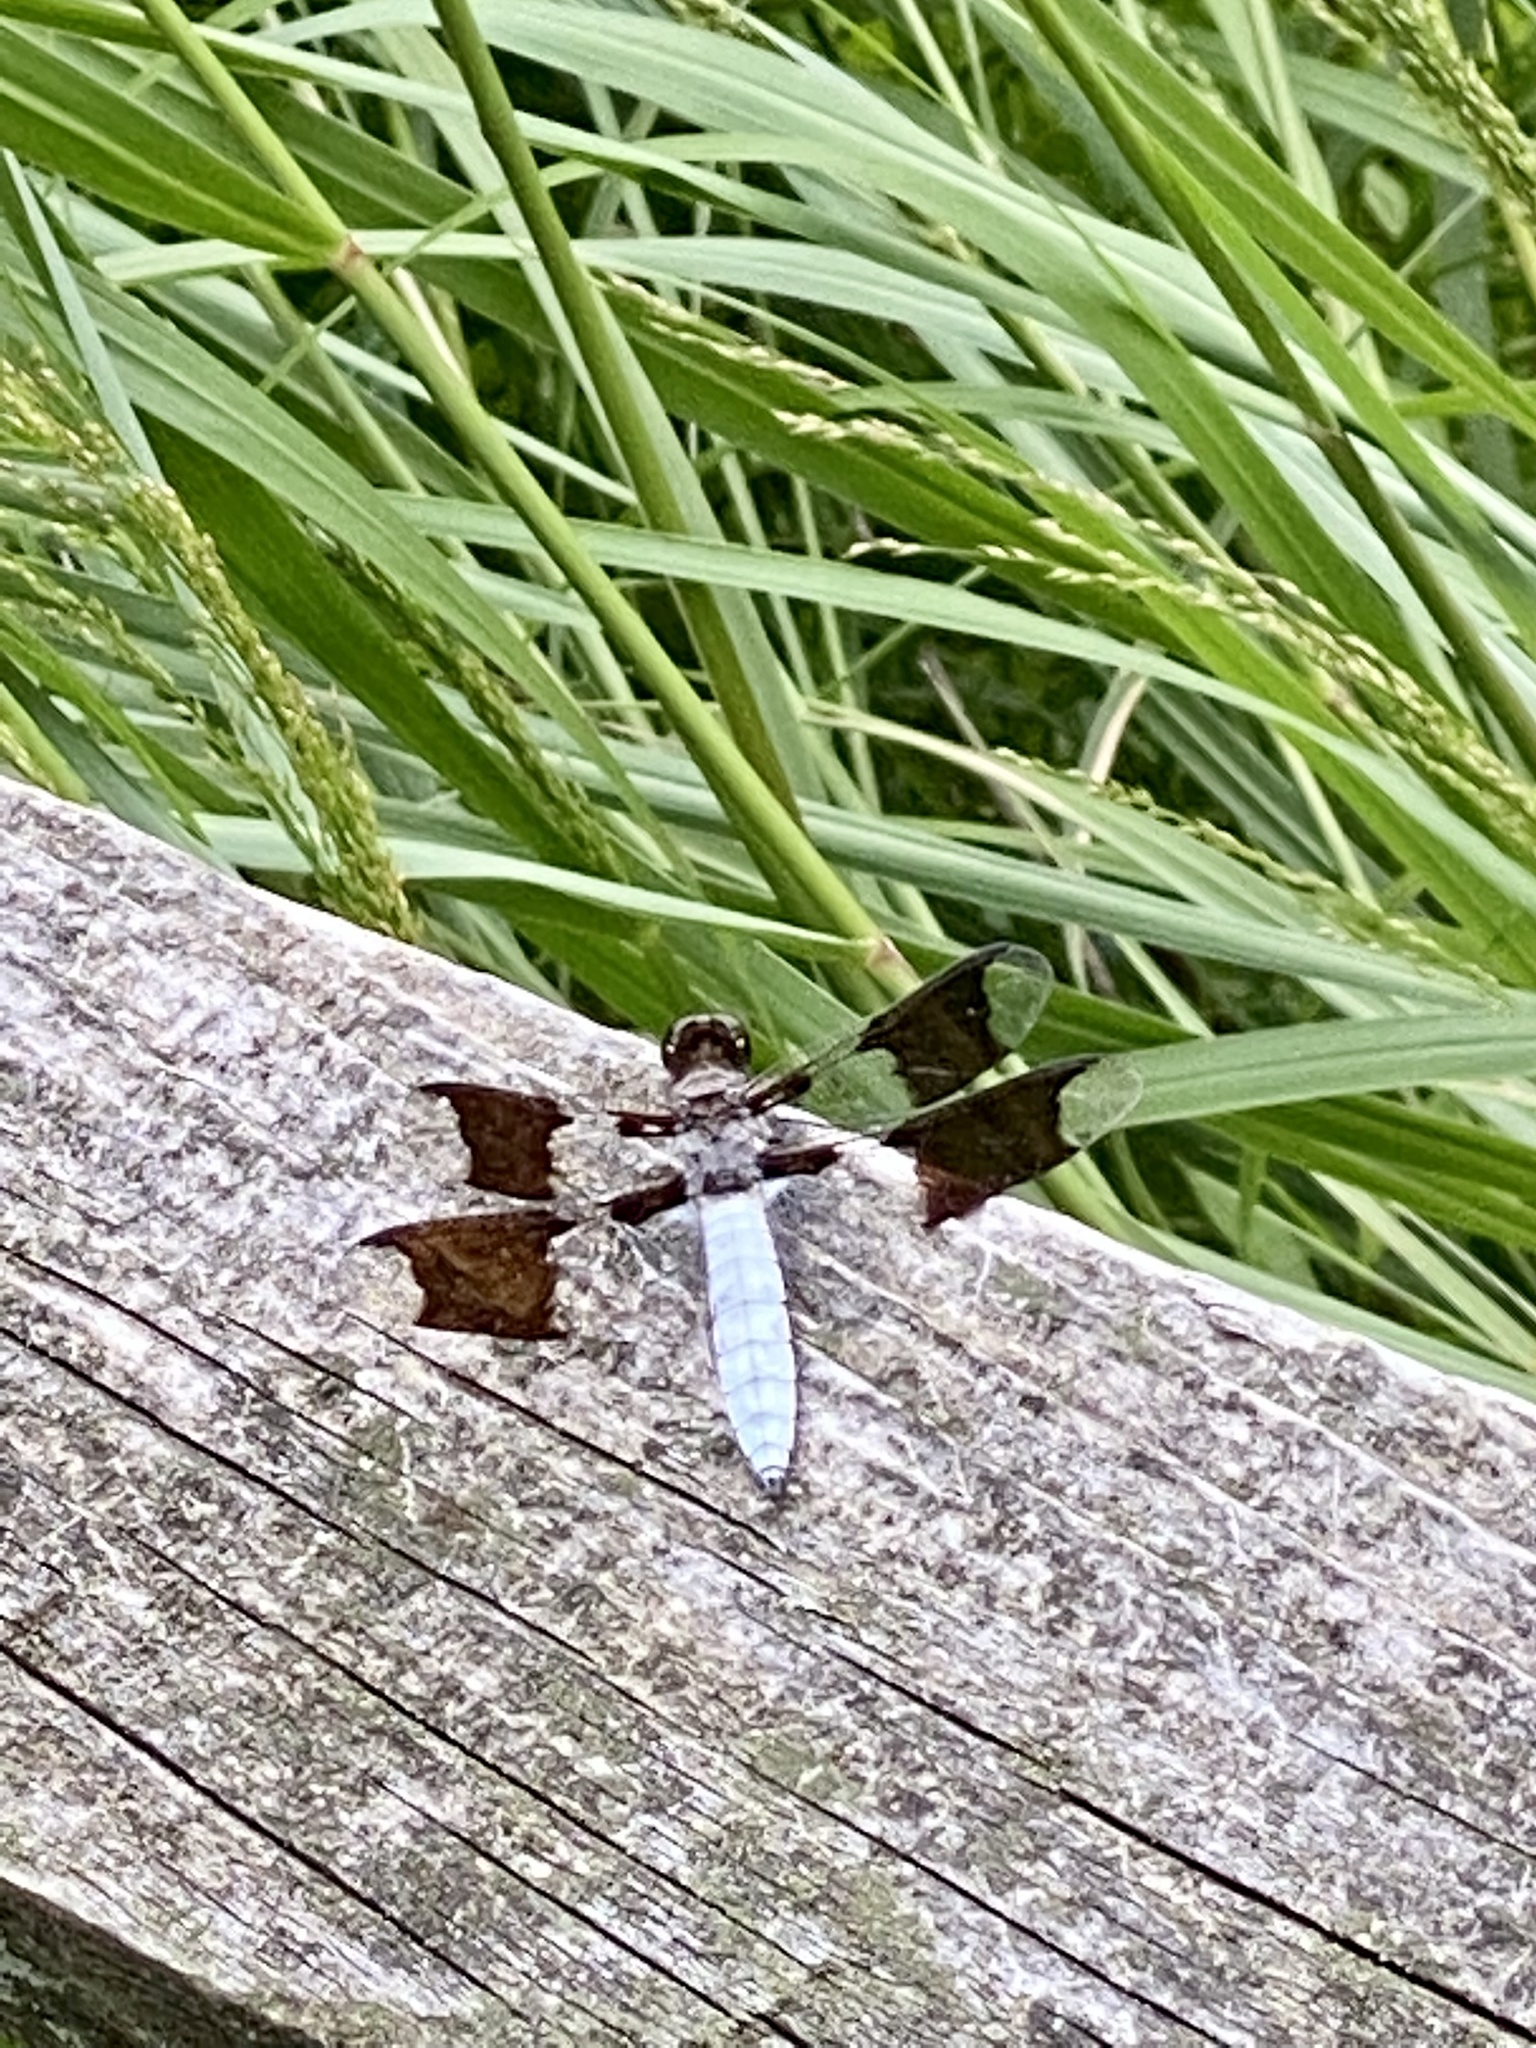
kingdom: Animalia
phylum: Arthropoda
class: Insecta
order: Odonata
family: Libellulidae
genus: Plathemis
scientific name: Plathemis lydia
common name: Common whitetail
